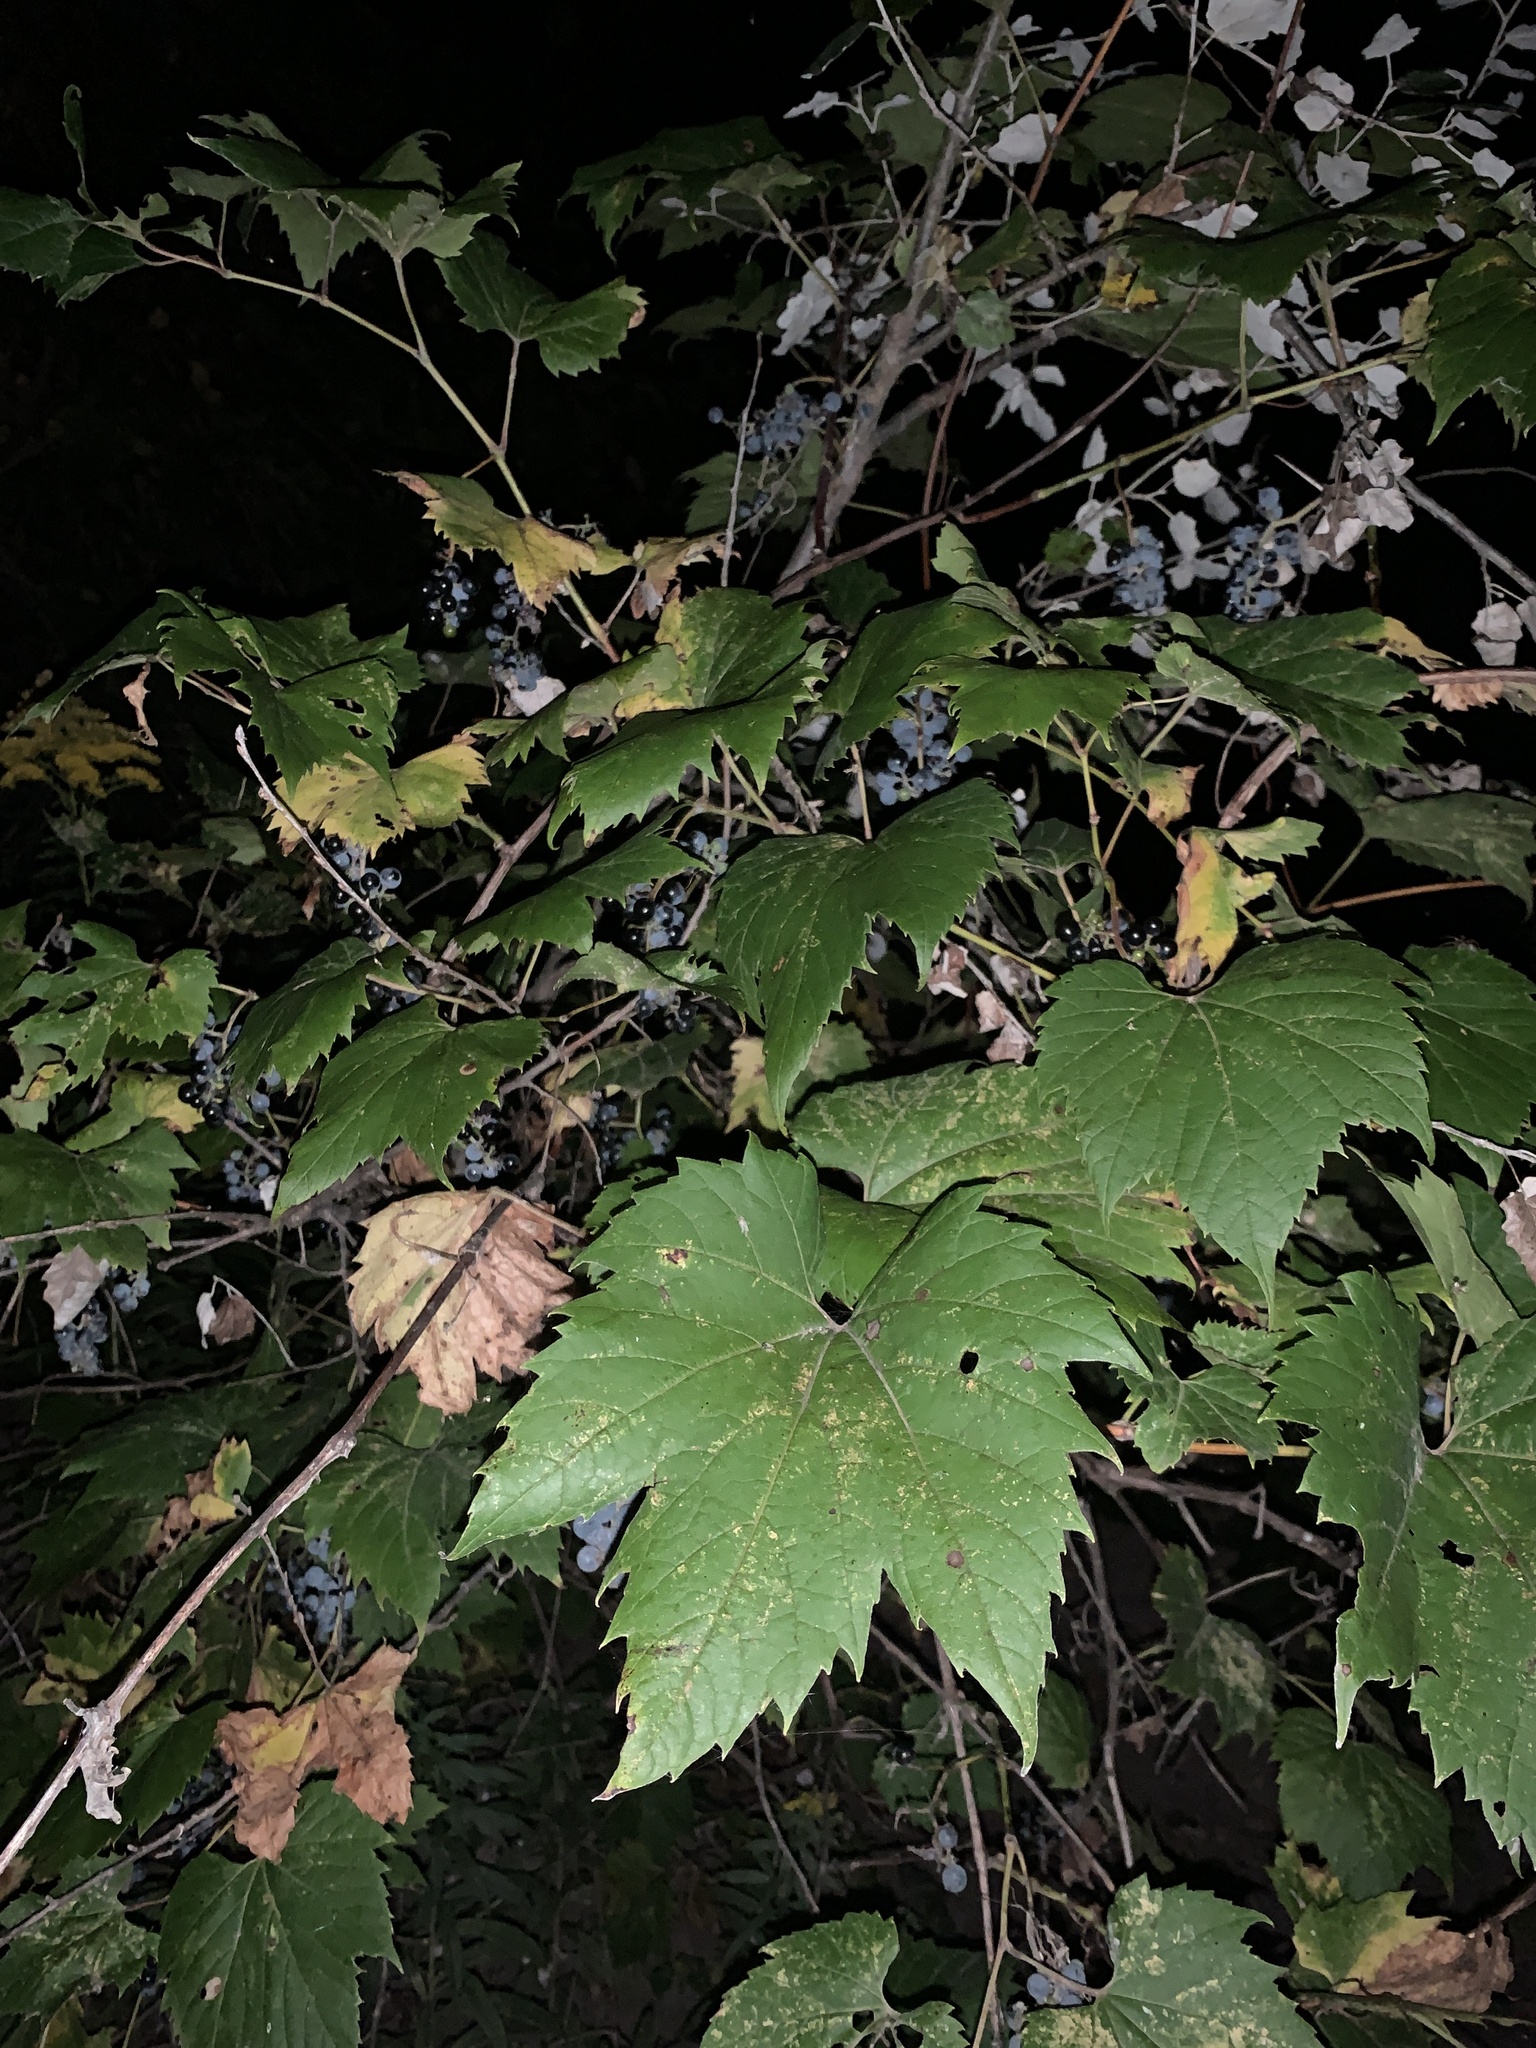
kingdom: Plantae
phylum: Tracheophyta
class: Magnoliopsida
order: Vitales
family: Vitaceae
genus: Vitis
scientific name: Vitis riparia
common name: Frost grape
